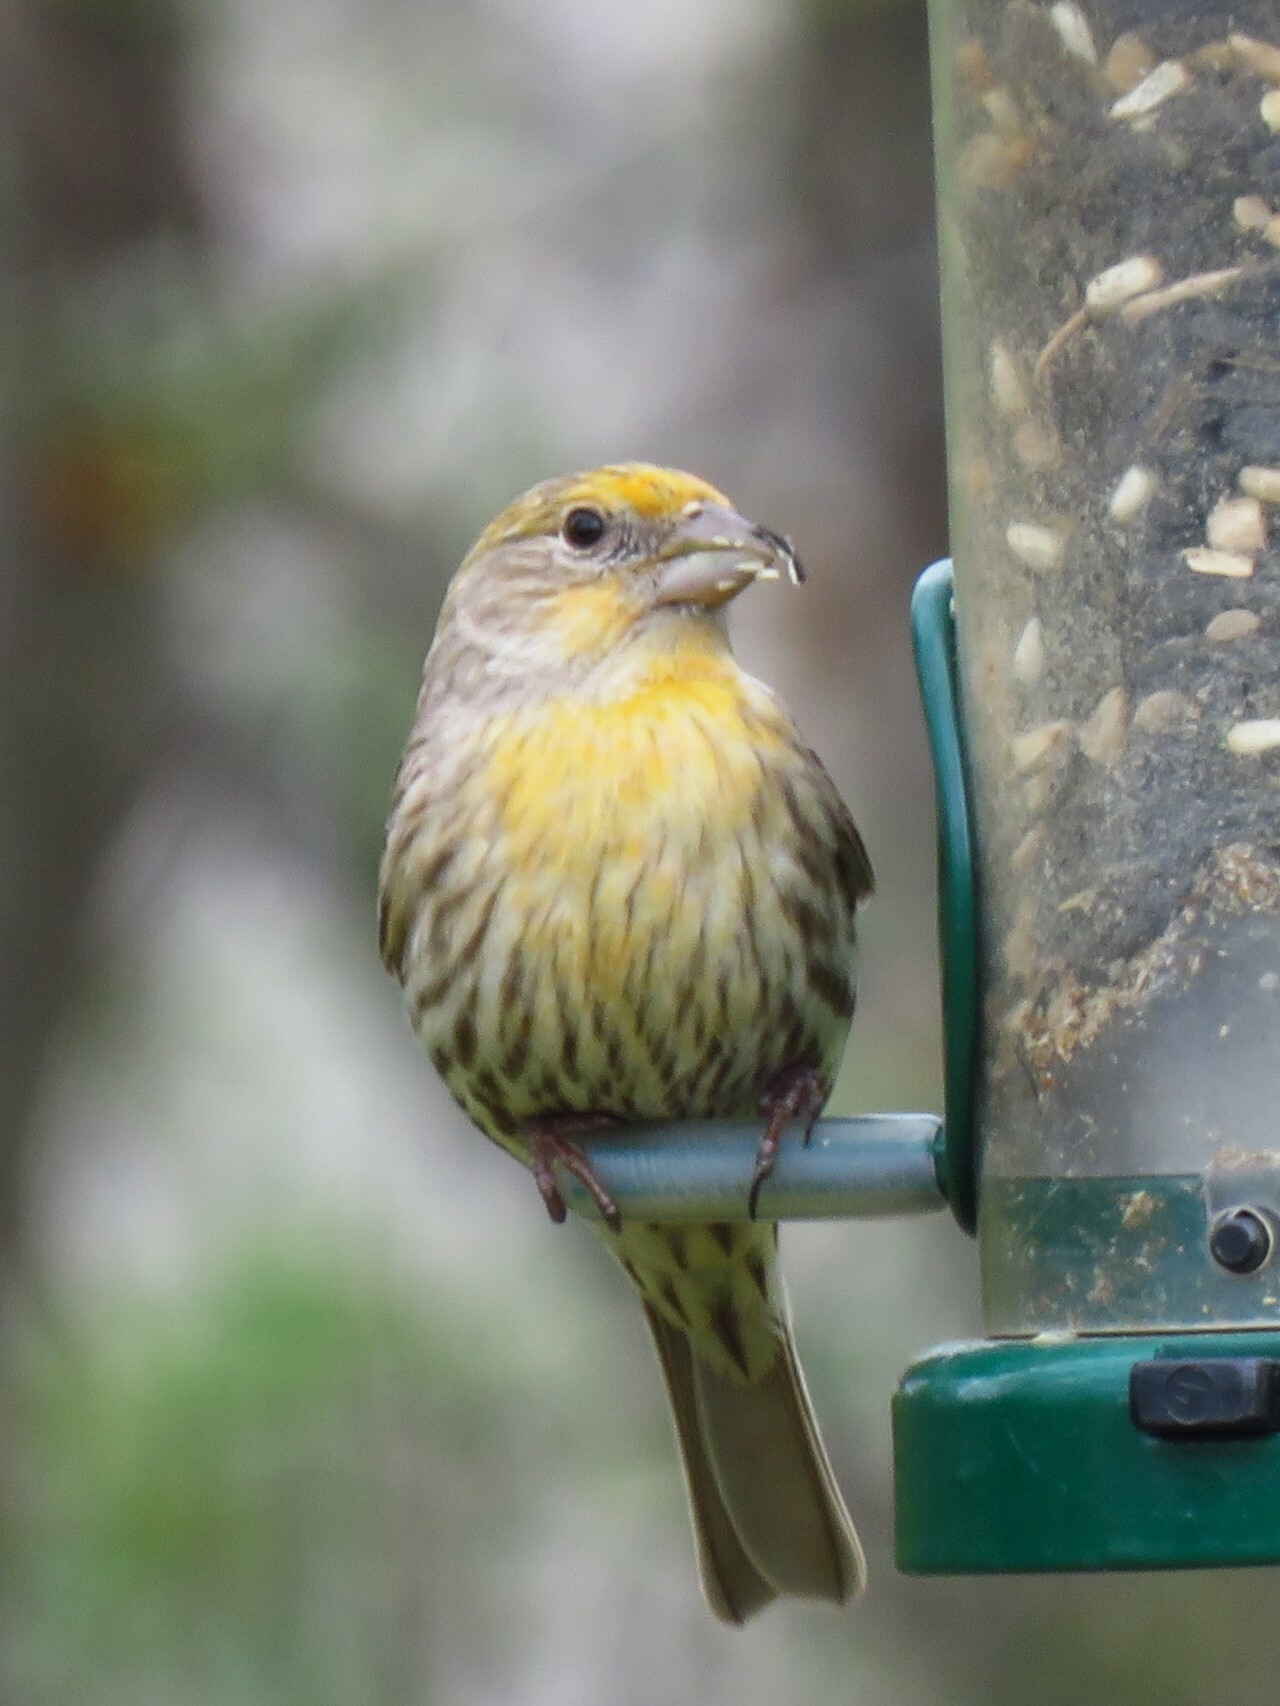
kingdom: Animalia
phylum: Chordata
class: Aves
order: Passeriformes
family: Fringillidae
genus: Haemorhous
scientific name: Haemorhous mexicanus
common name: House finch
